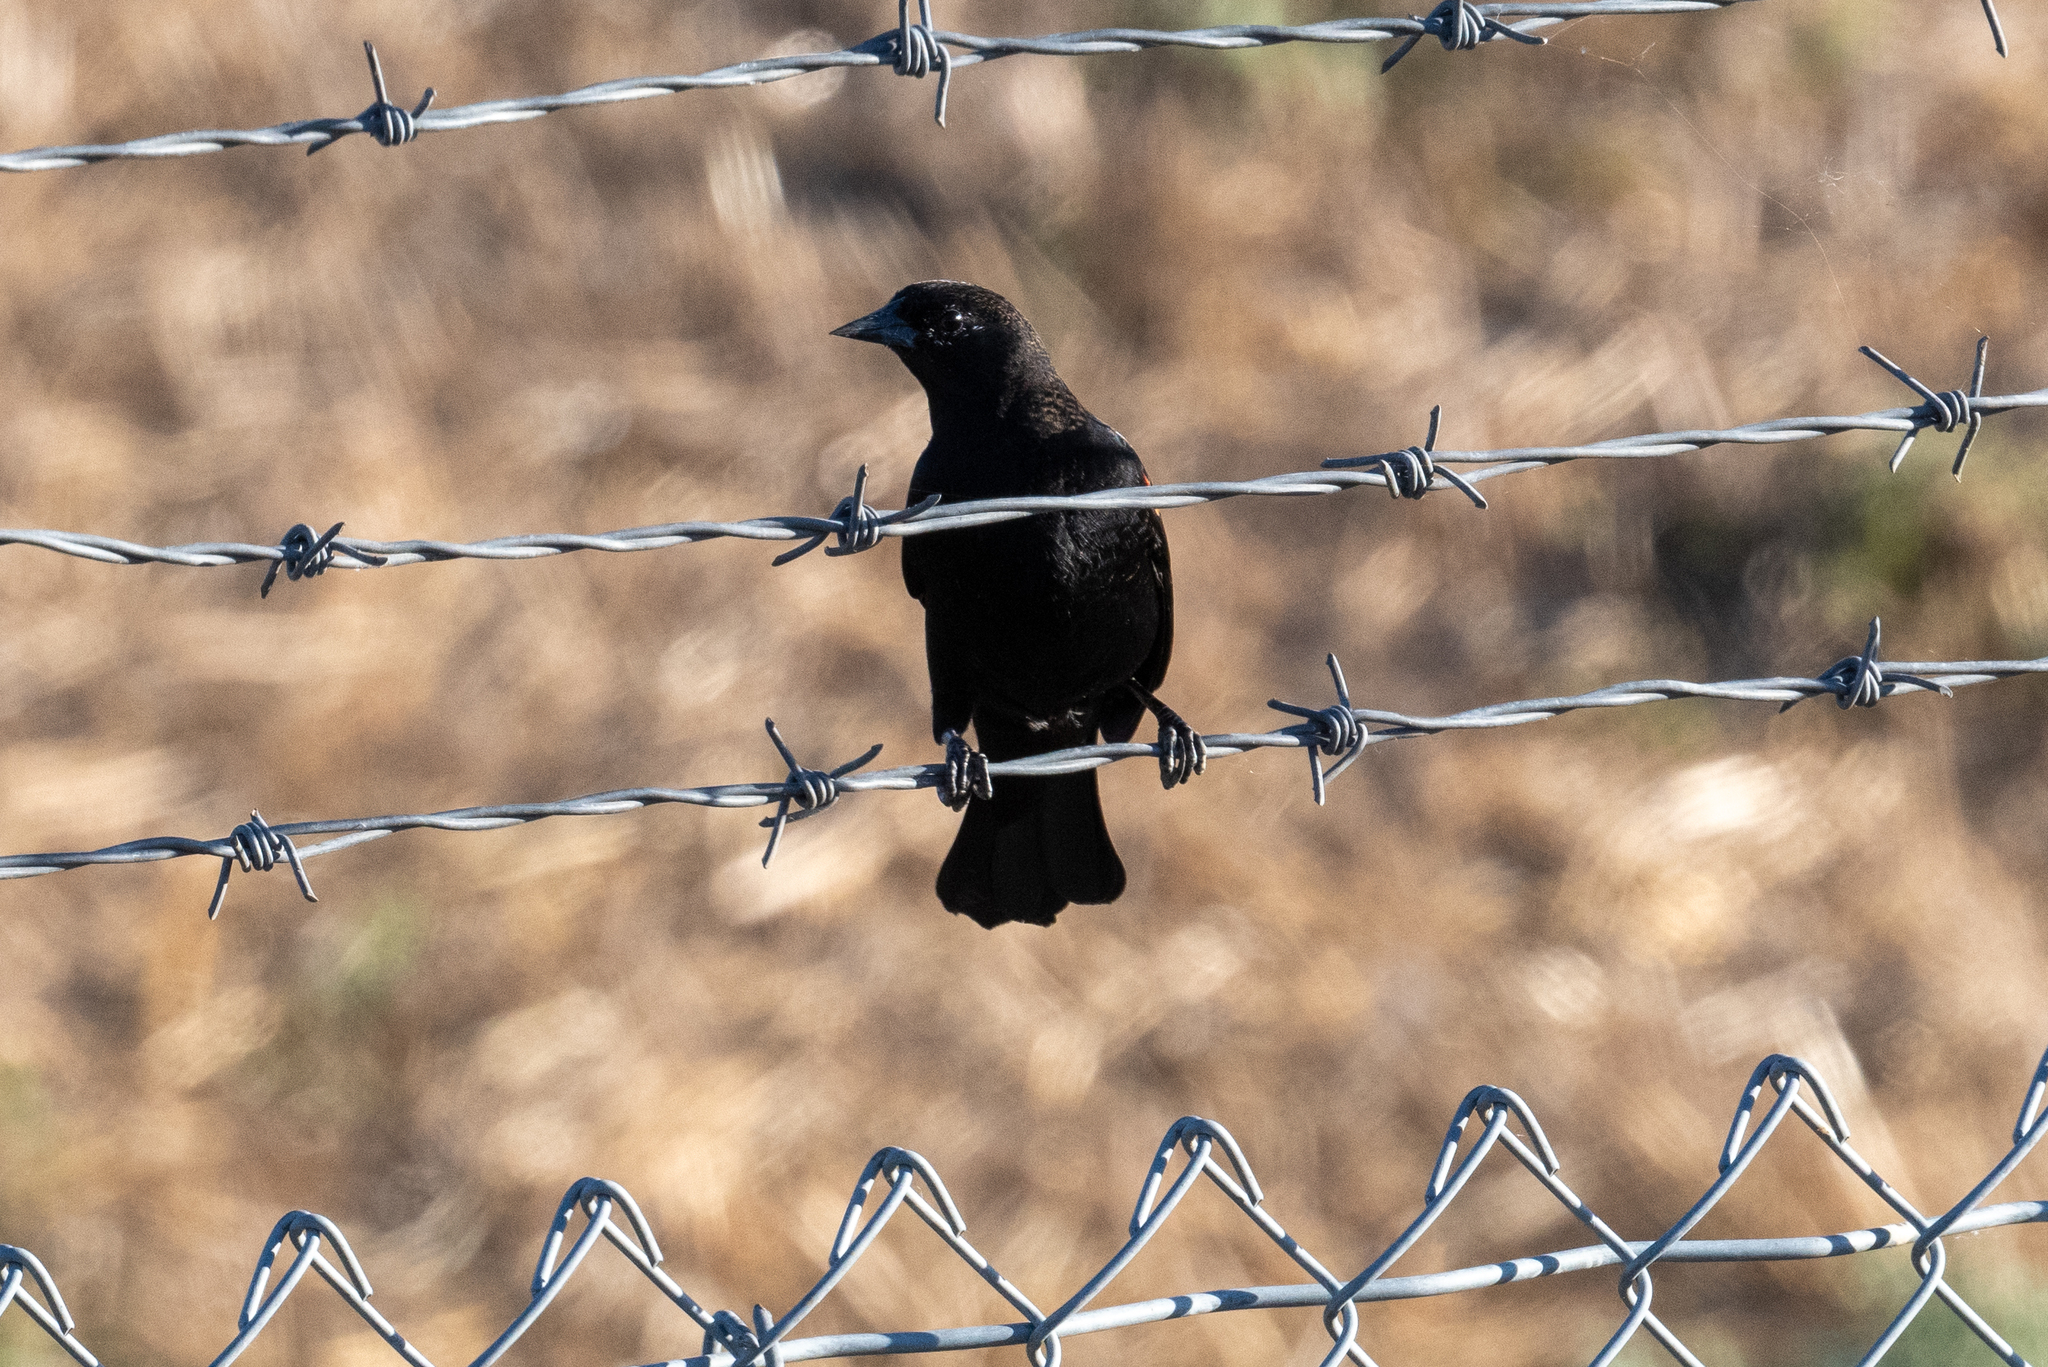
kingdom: Animalia
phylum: Chordata
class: Aves
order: Passeriformes
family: Icteridae
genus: Agelaius
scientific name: Agelaius phoeniceus
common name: Red-winged blackbird
